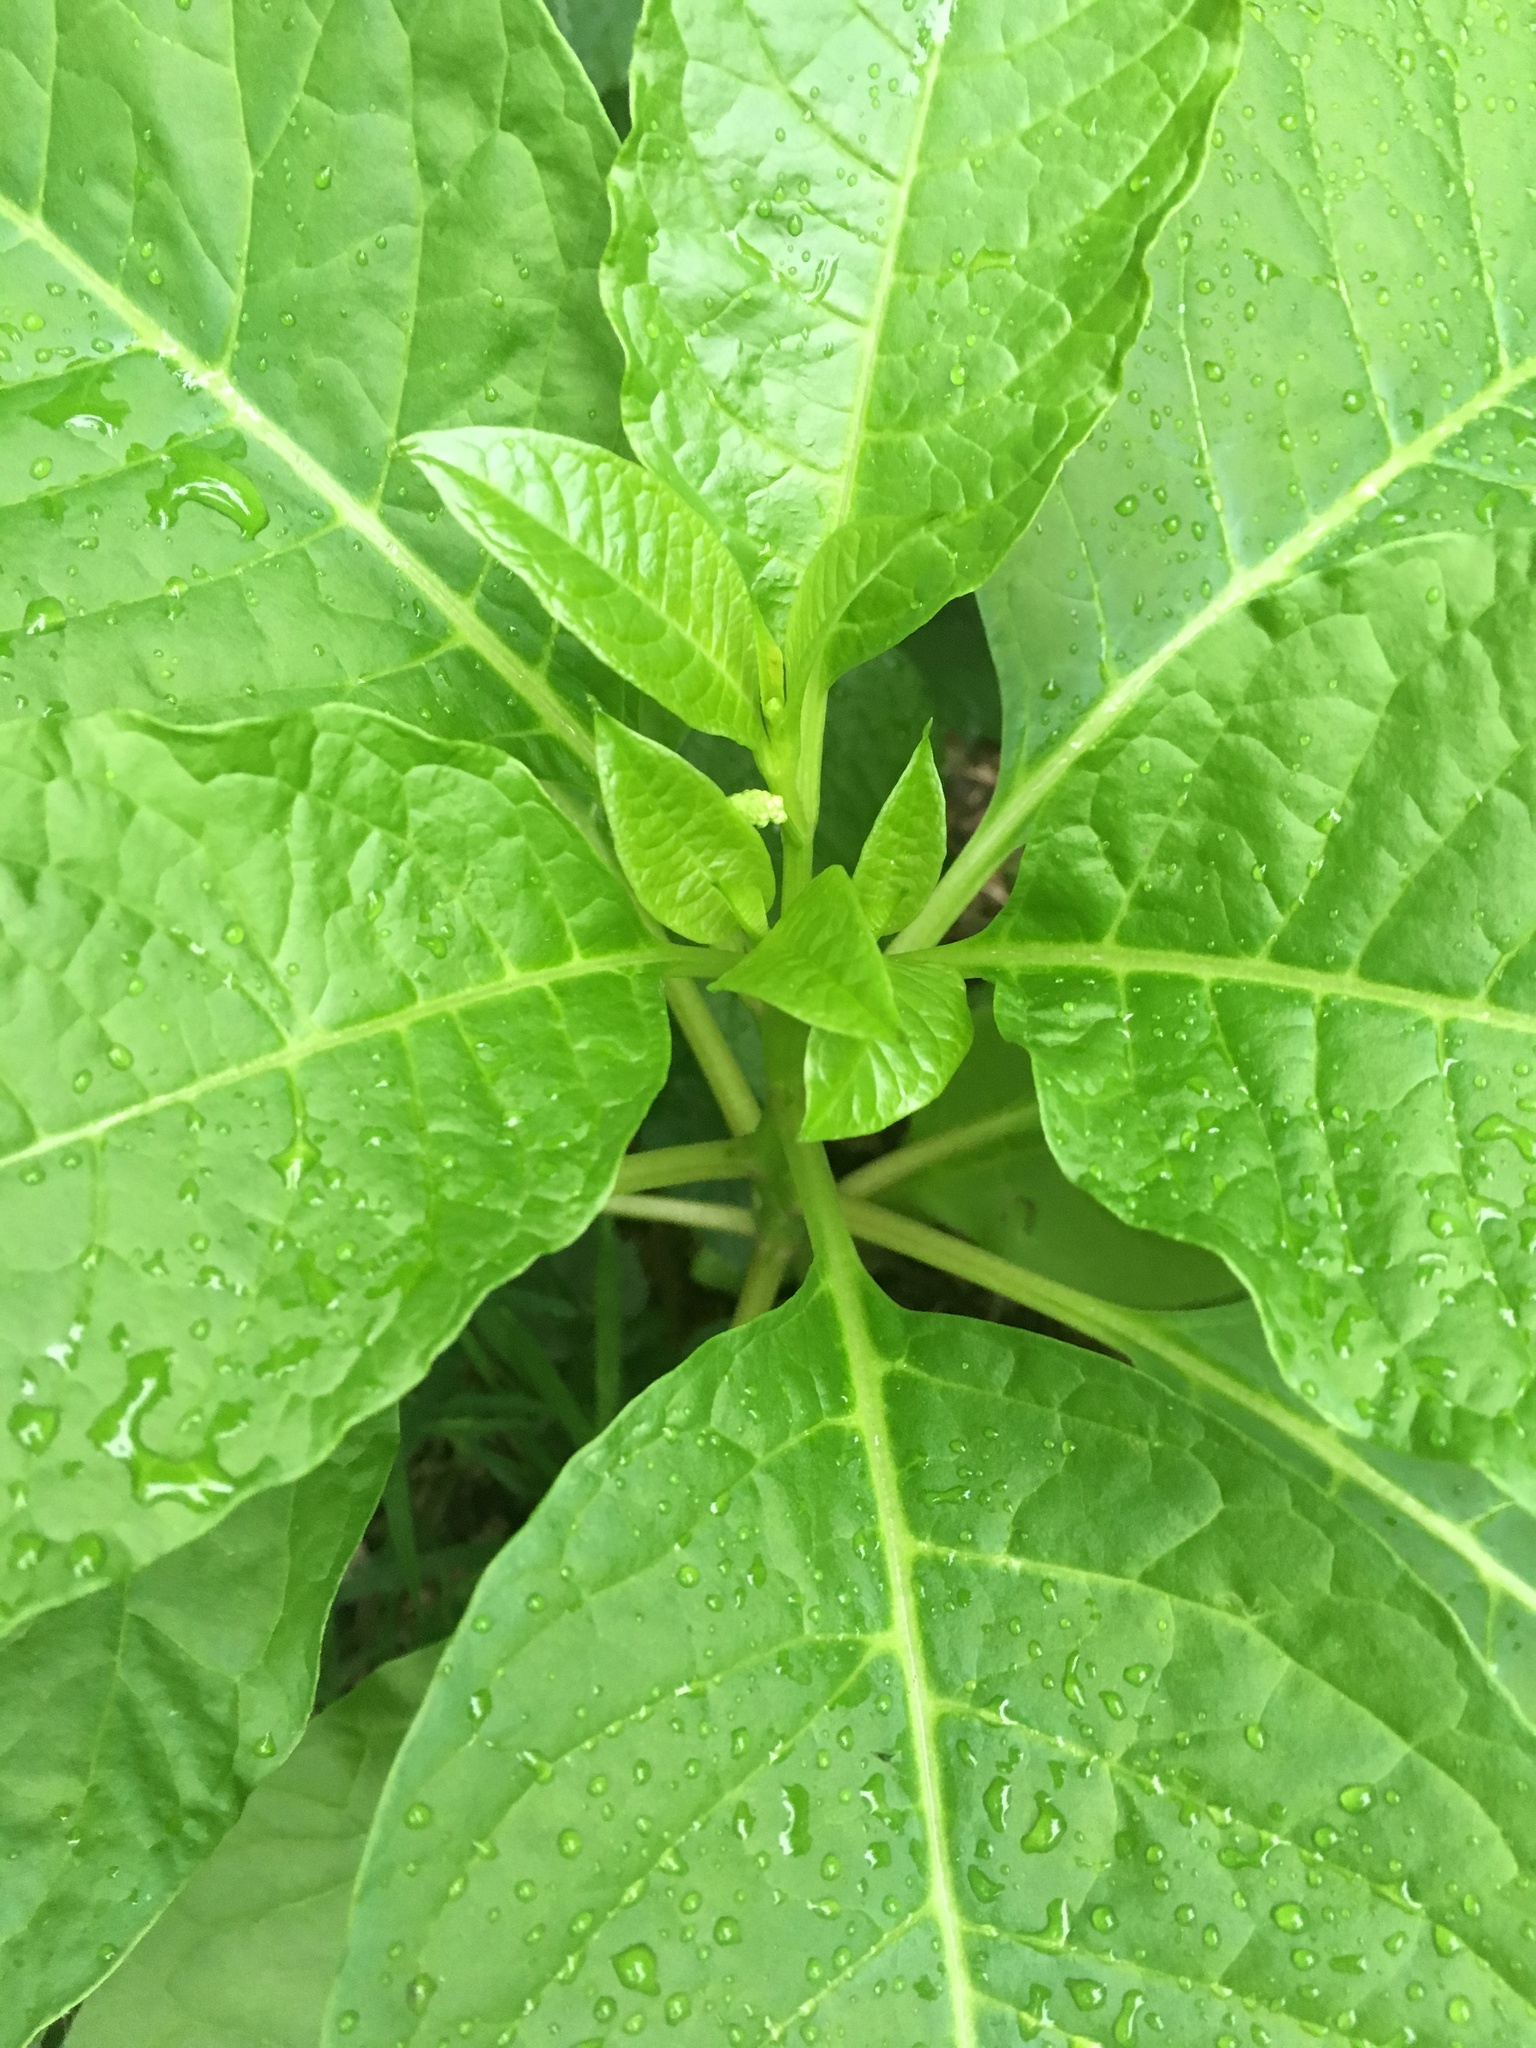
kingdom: Plantae
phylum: Tracheophyta
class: Magnoliopsida
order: Caryophyllales
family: Phytolaccaceae
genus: Phytolacca
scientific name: Phytolacca americana
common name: American pokeweed
